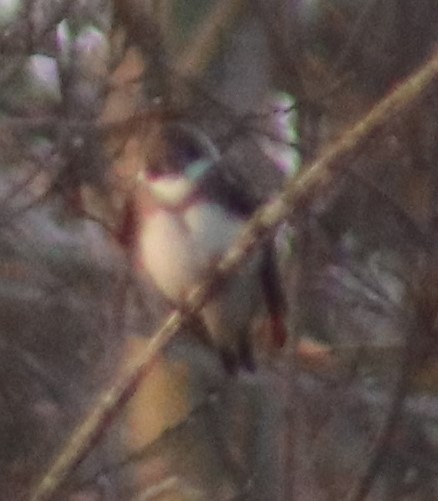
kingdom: Animalia
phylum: Chordata
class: Aves
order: Passeriformes
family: Hirundinidae
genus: Riparia
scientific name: Riparia riparia
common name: Sand martin
